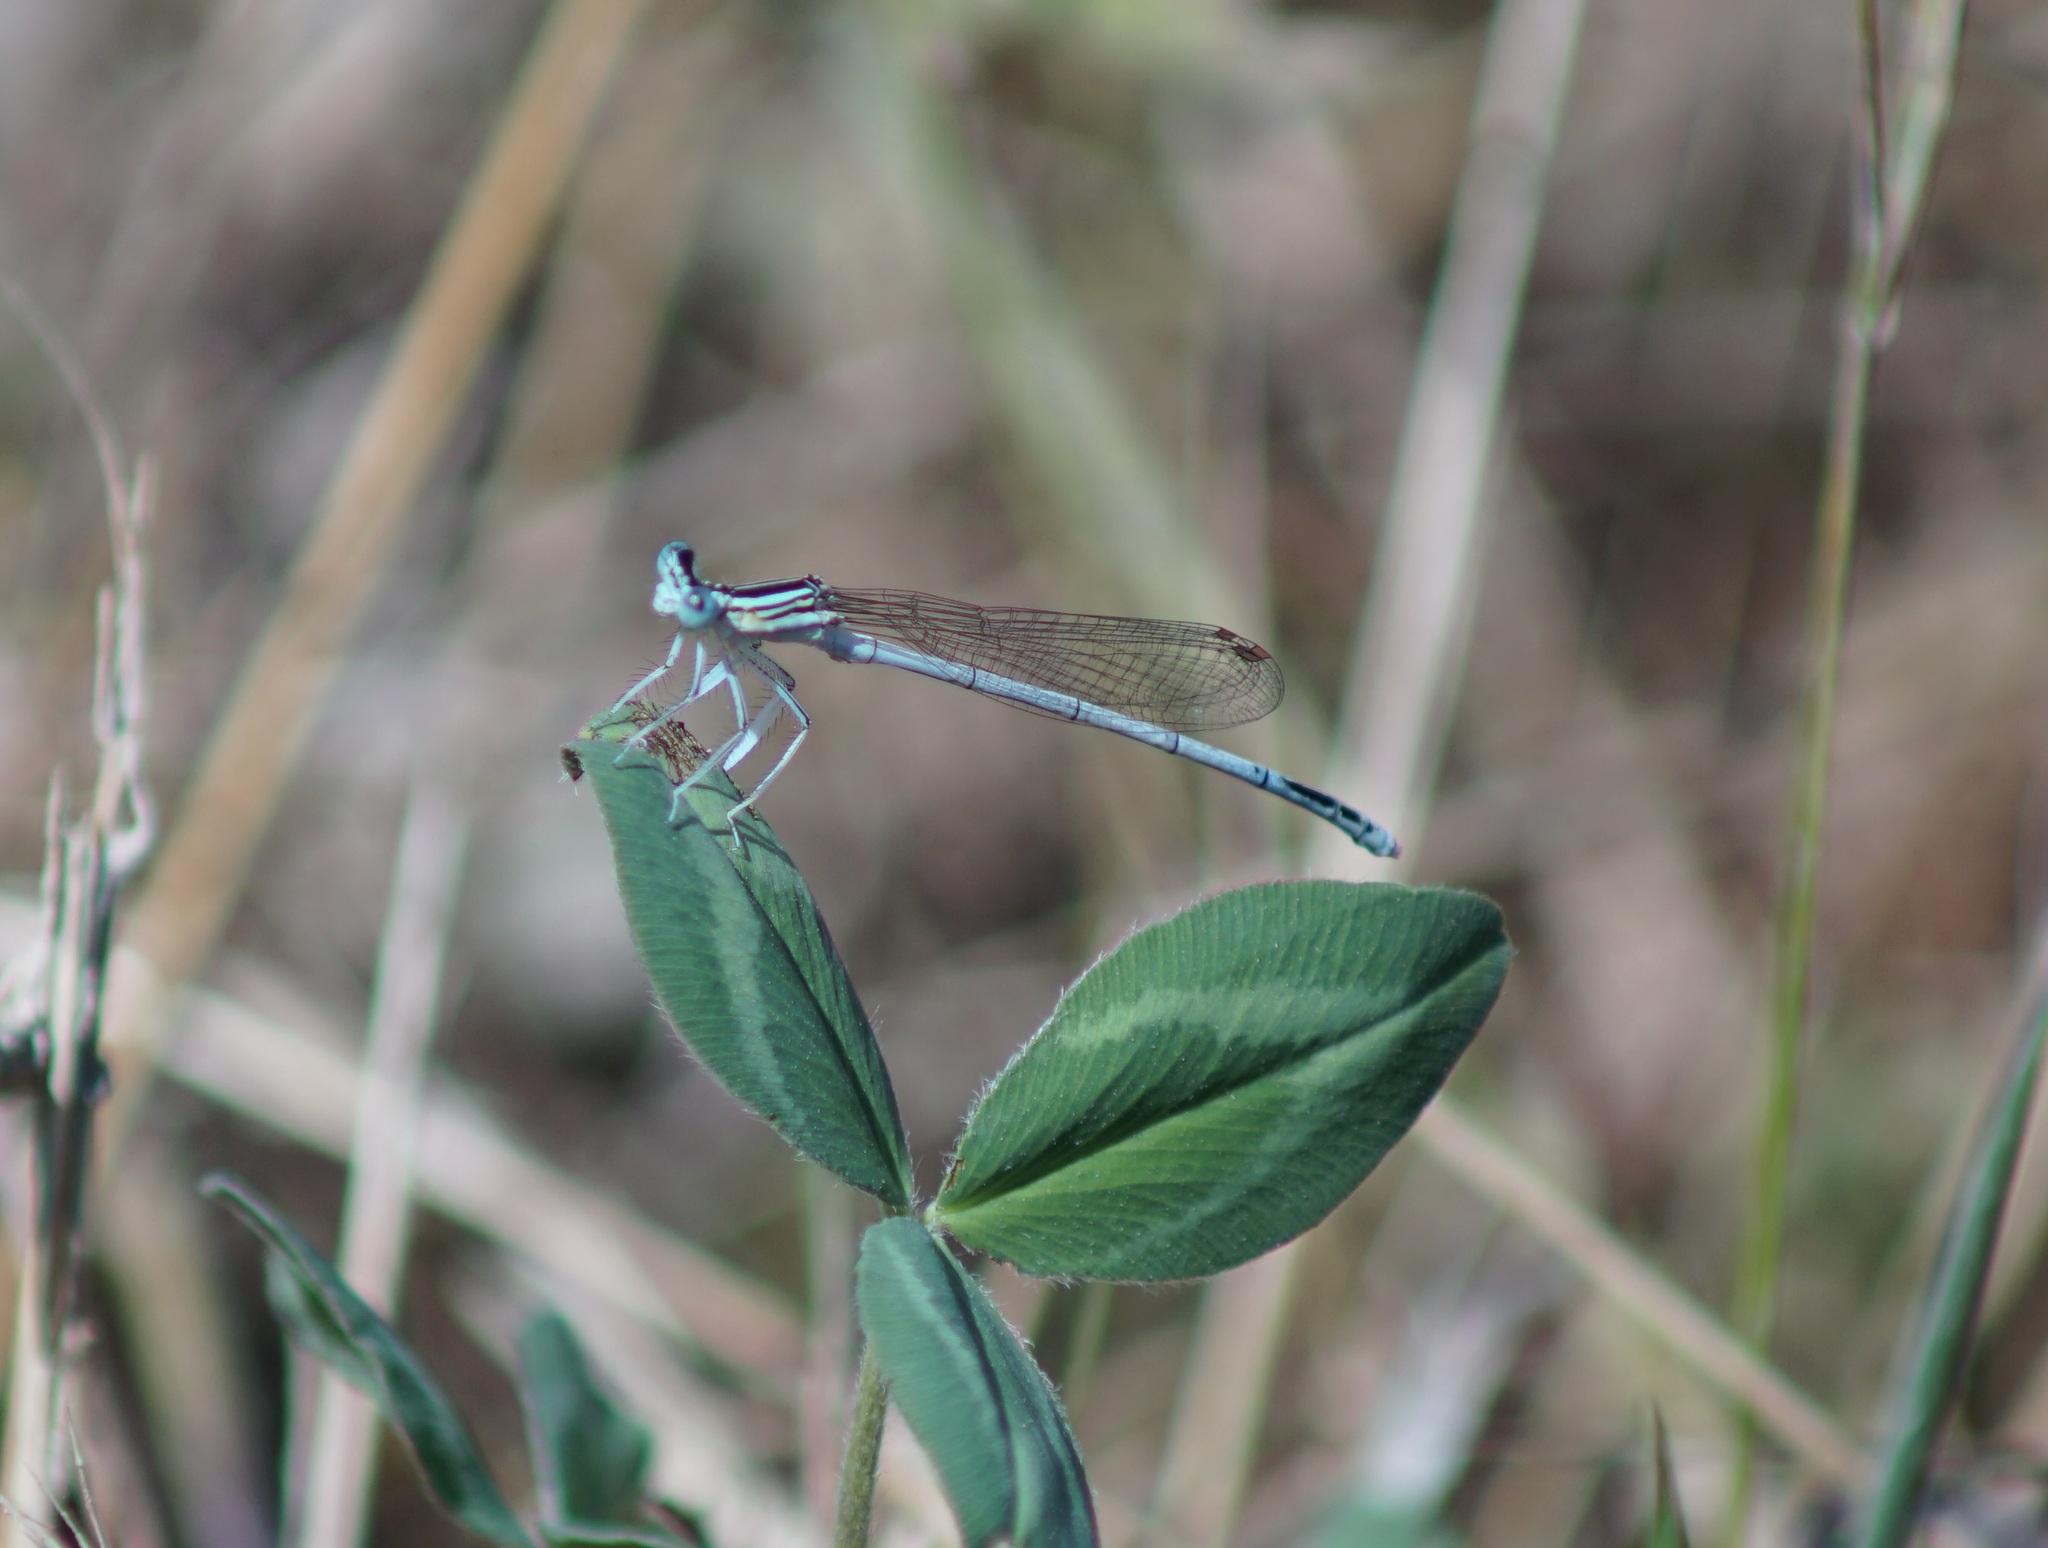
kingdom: Animalia
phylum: Arthropoda
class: Insecta
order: Odonata
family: Platycnemididae
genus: Platycnemis
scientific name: Platycnemis pennipes
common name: White-legged damselfly
